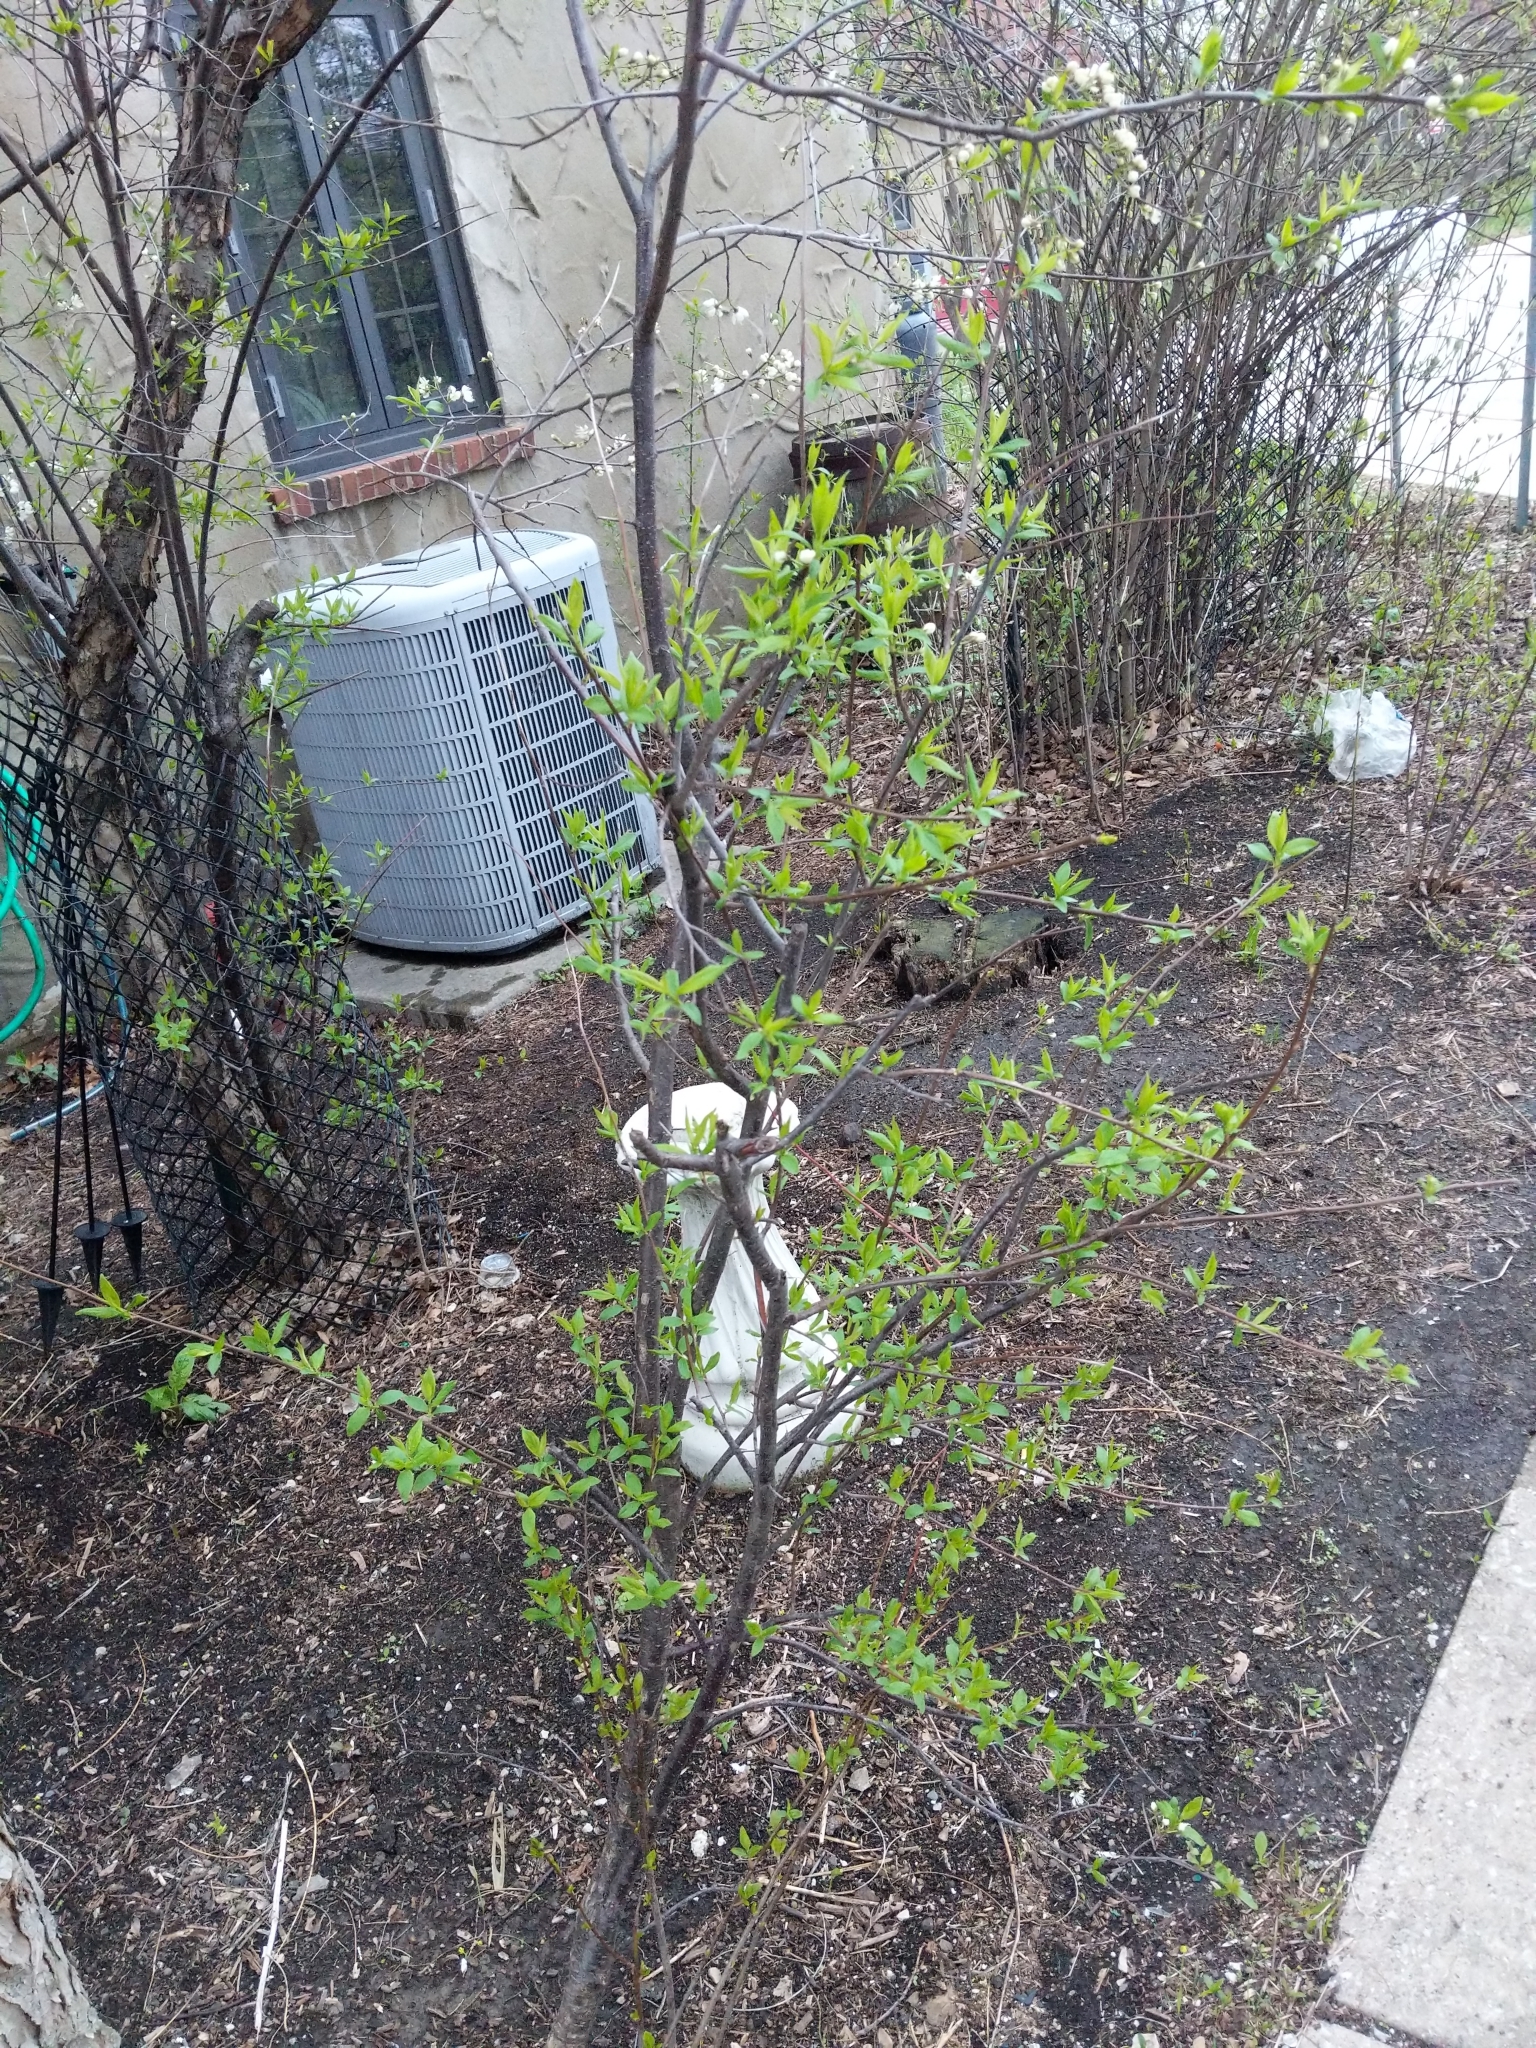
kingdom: Plantae
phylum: Tracheophyta
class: Magnoliopsida
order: Rosales
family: Rosaceae
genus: Prunus
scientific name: Prunus americana
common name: American plum
